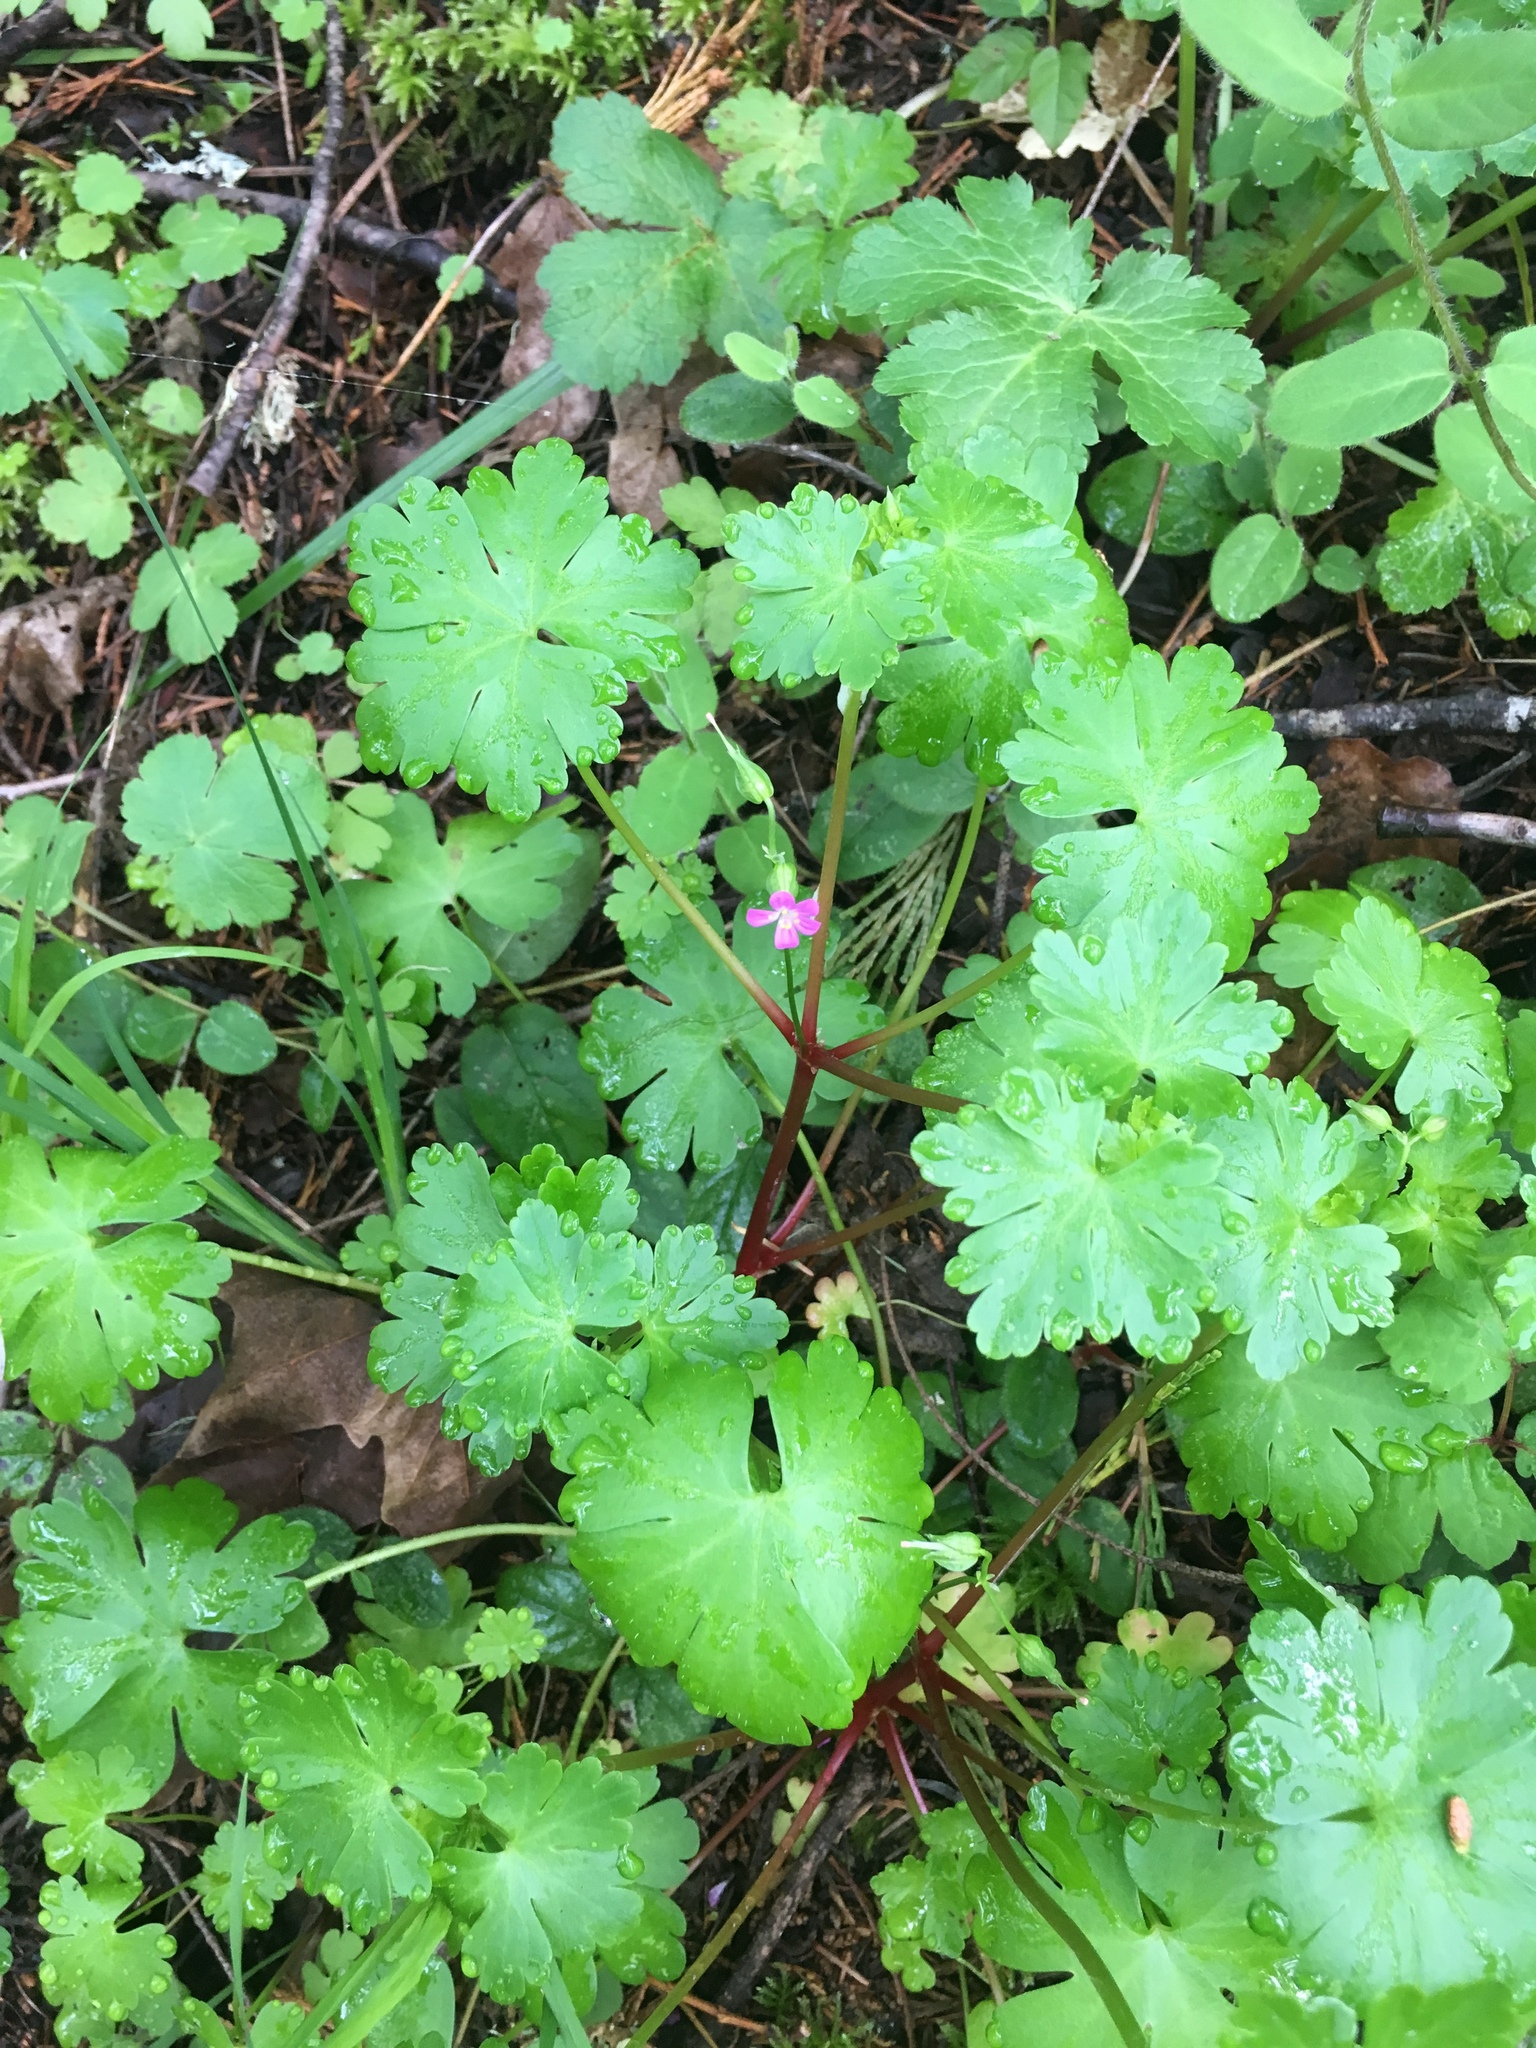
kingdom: Plantae
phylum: Tracheophyta
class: Magnoliopsida
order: Geraniales
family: Geraniaceae
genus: Geranium
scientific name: Geranium lucidum
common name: Shining crane's-bill
